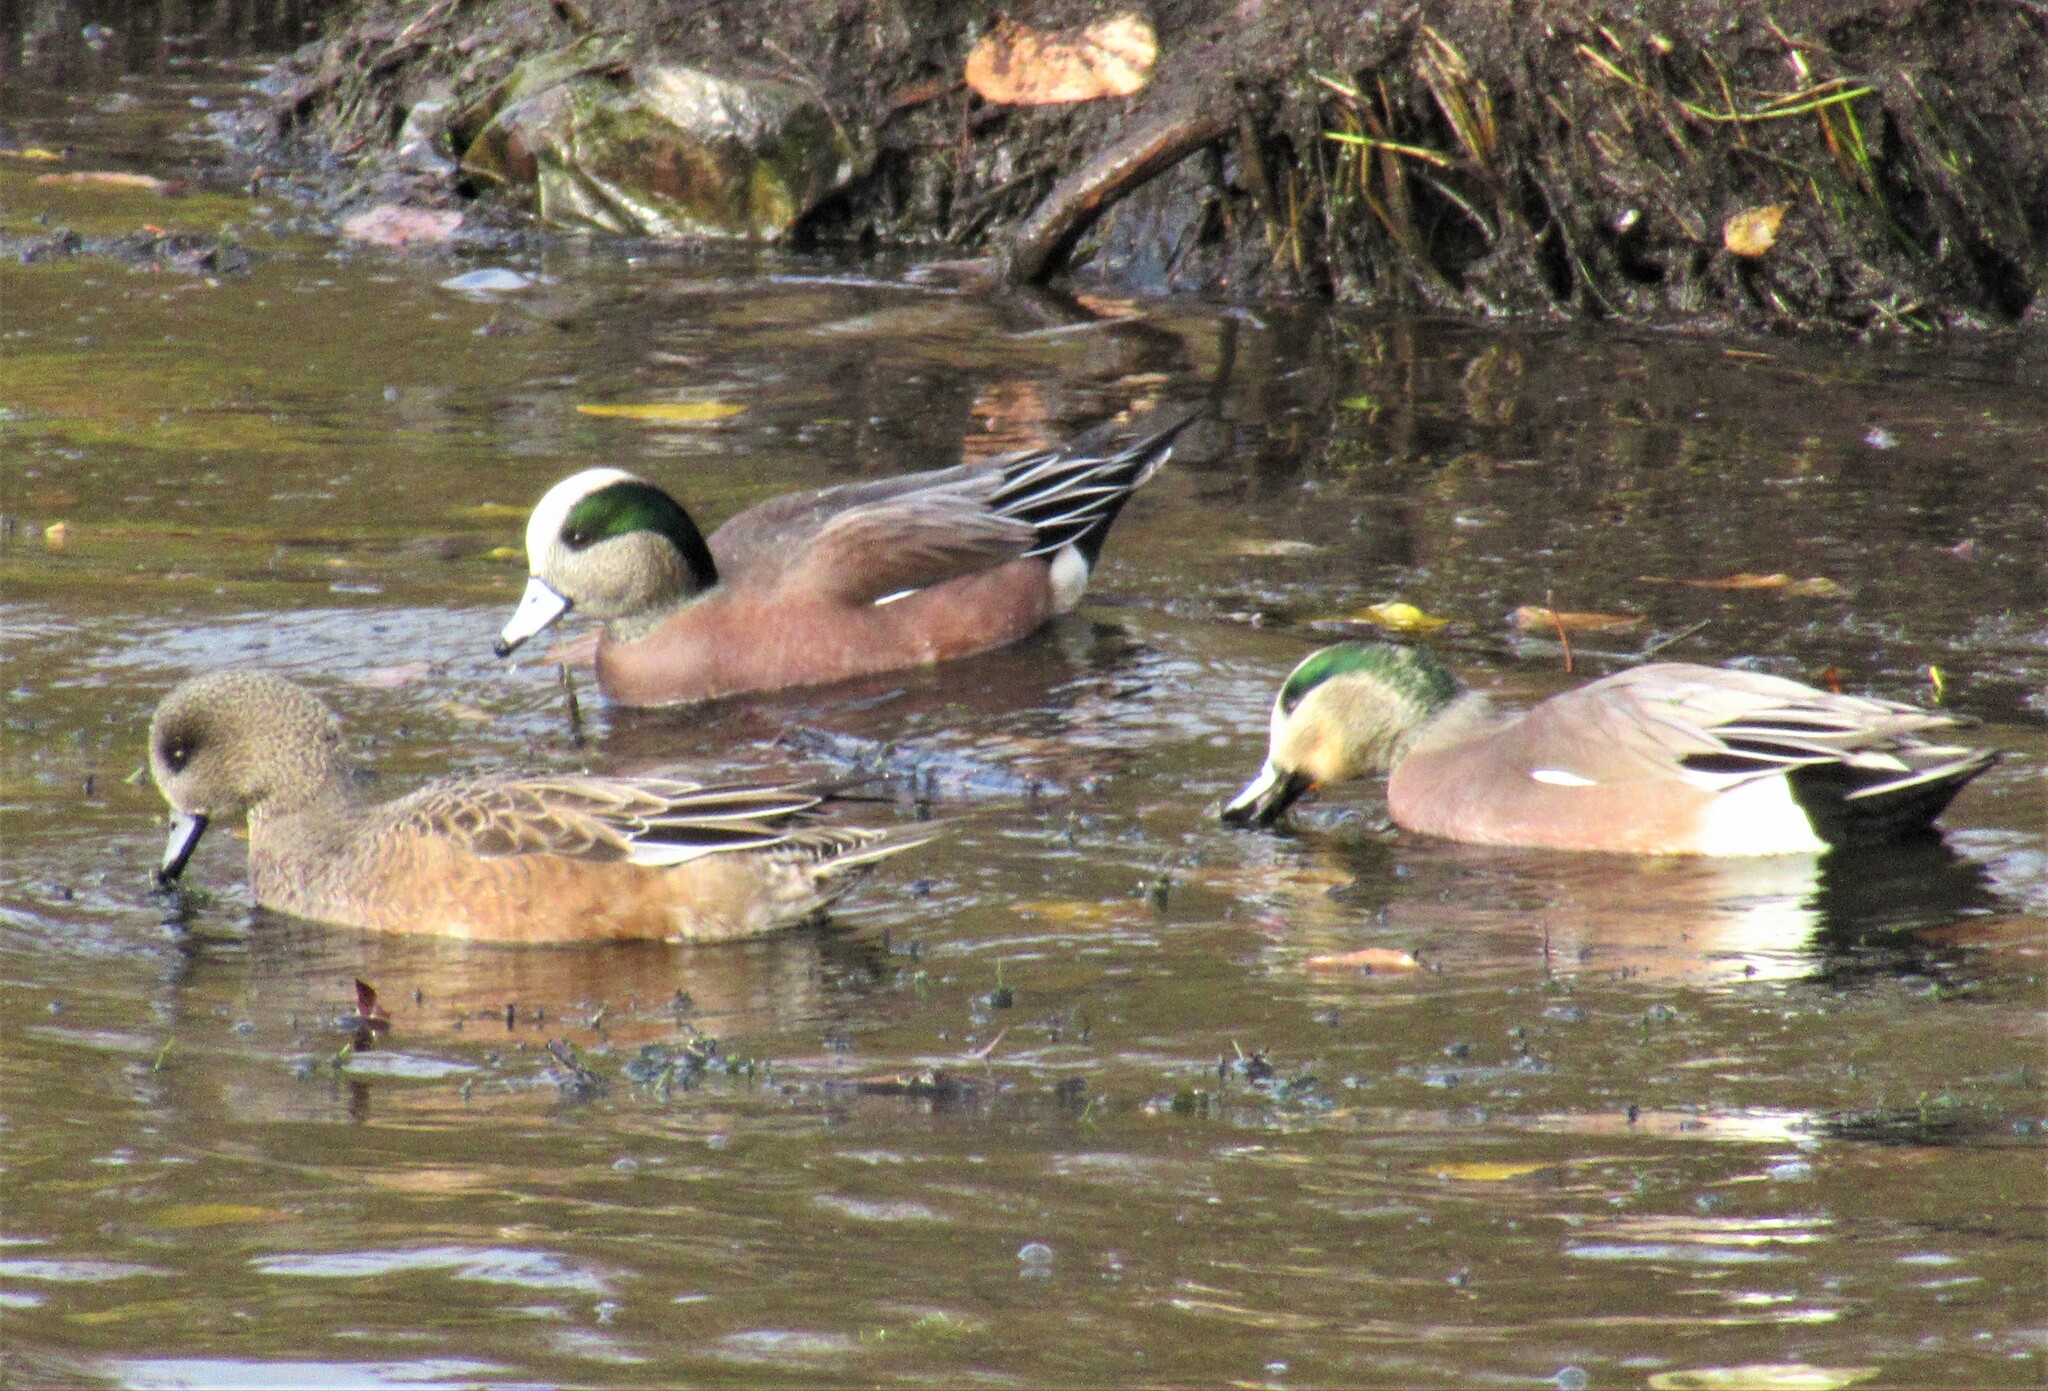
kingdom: Animalia
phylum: Chordata
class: Aves
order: Anseriformes
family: Anatidae
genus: Mareca
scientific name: Mareca americana
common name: American wigeon
